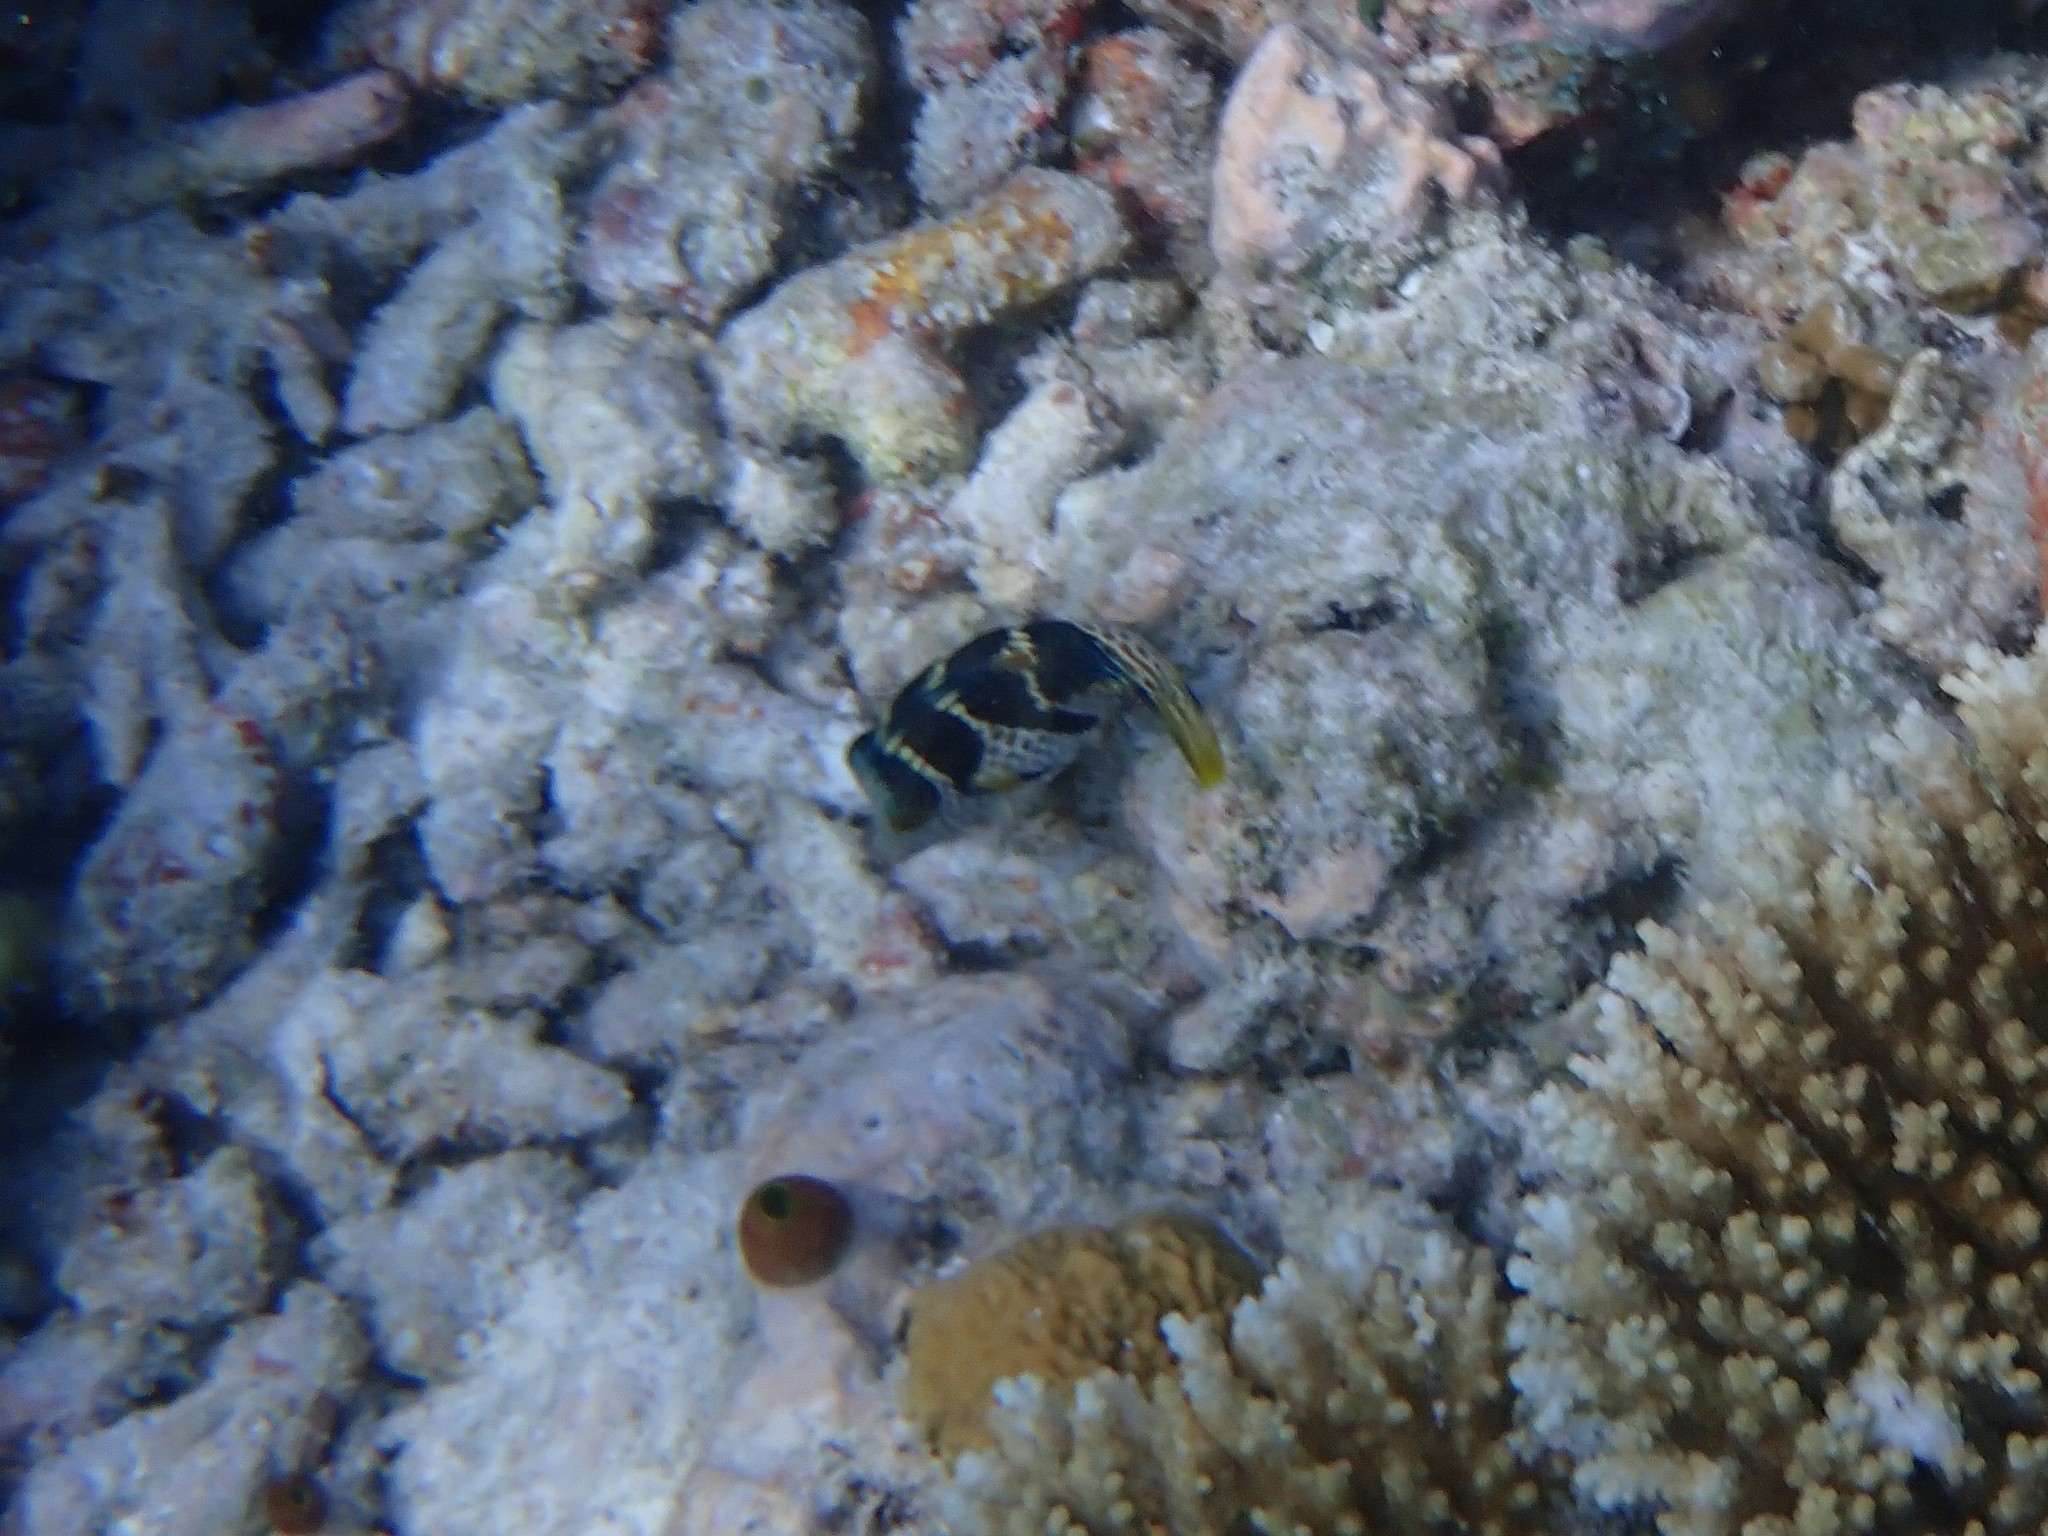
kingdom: Animalia
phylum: Chordata
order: Tetraodontiformes
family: Tetraodontidae
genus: Canthigaster
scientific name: Canthigaster valentini
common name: Banded toby
